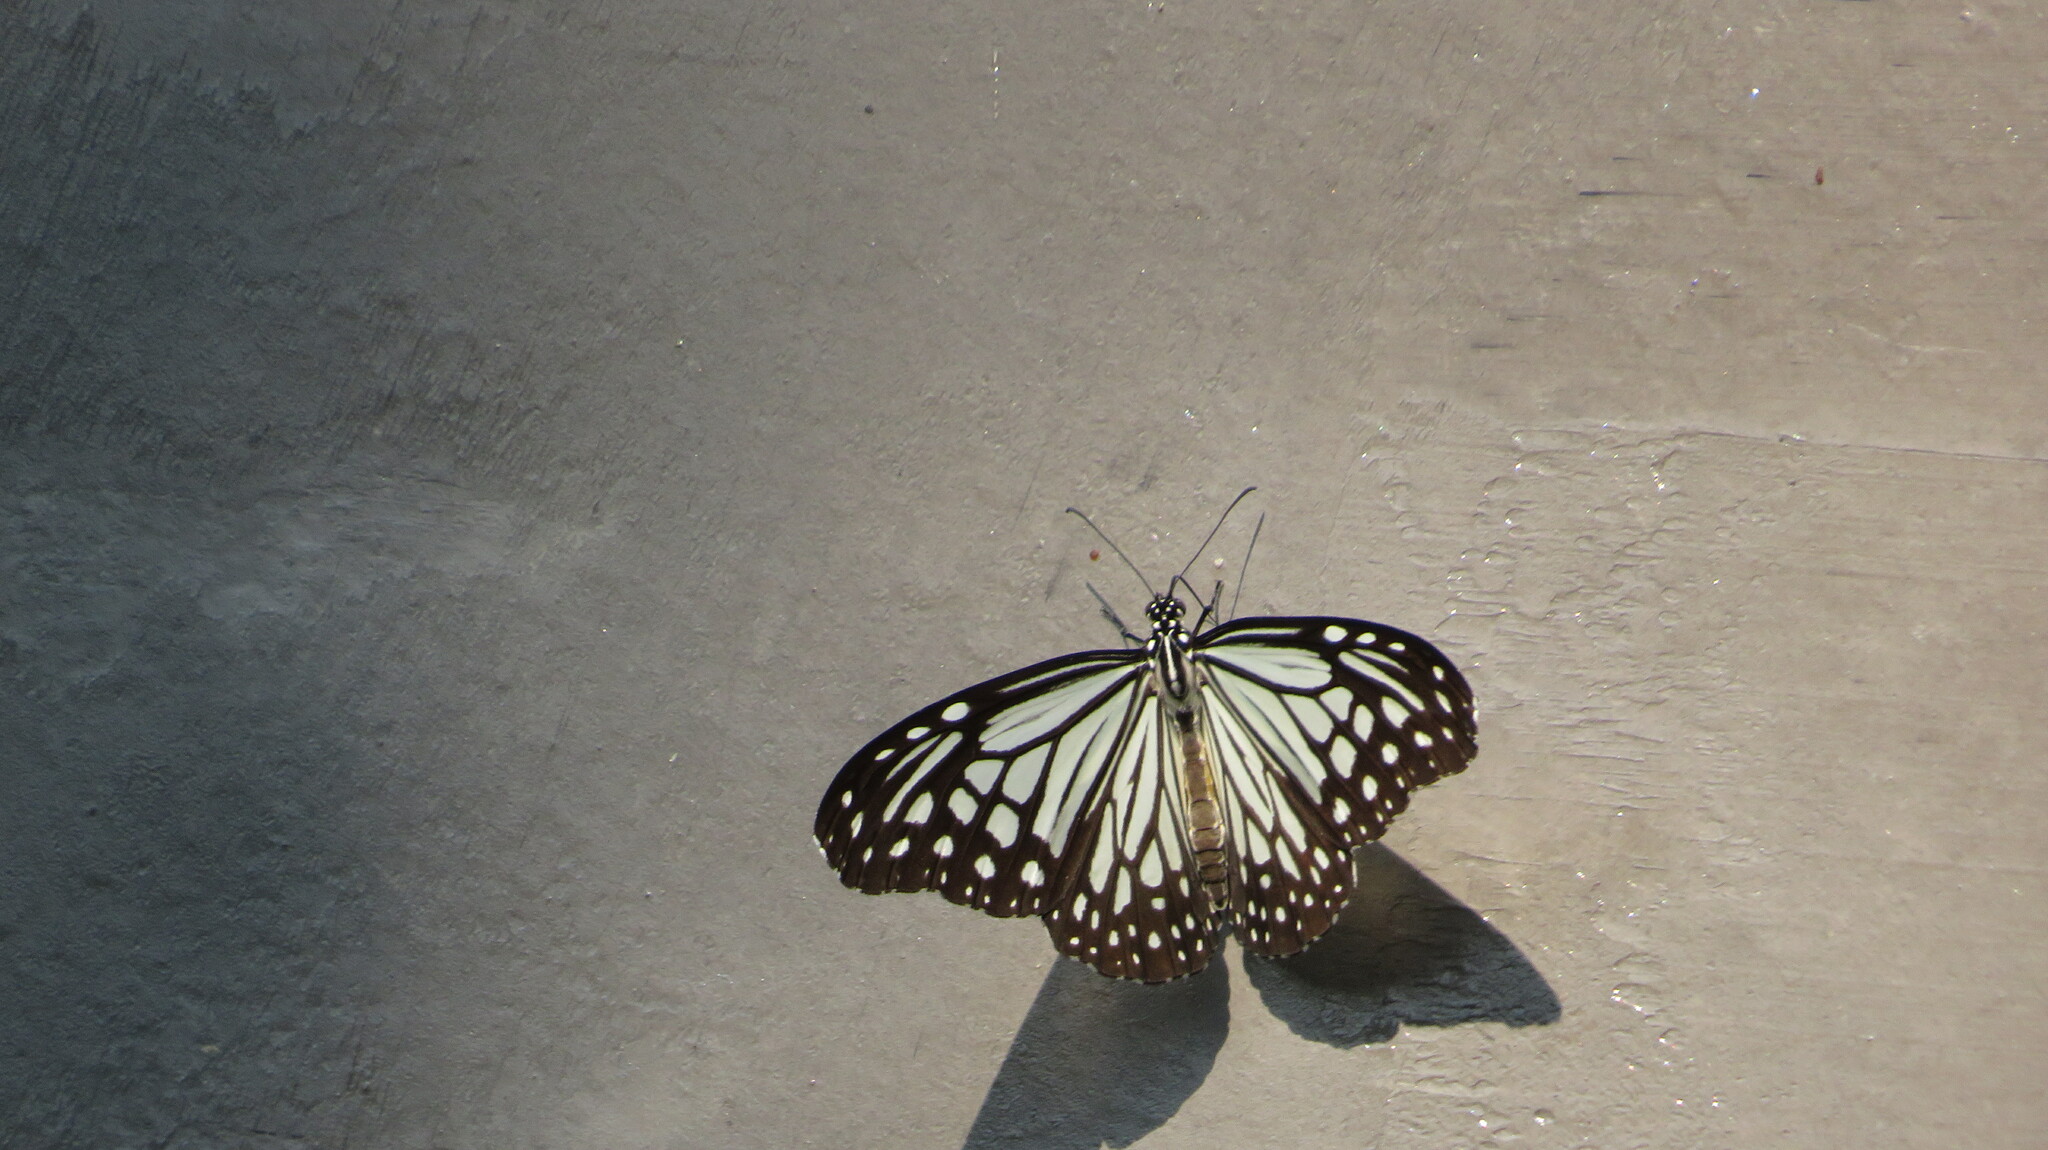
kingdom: Animalia
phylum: Arthropoda
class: Insecta
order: Lepidoptera
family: Nymphalidae
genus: Parantica
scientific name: Parantica aglea
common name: Glassy tiger
